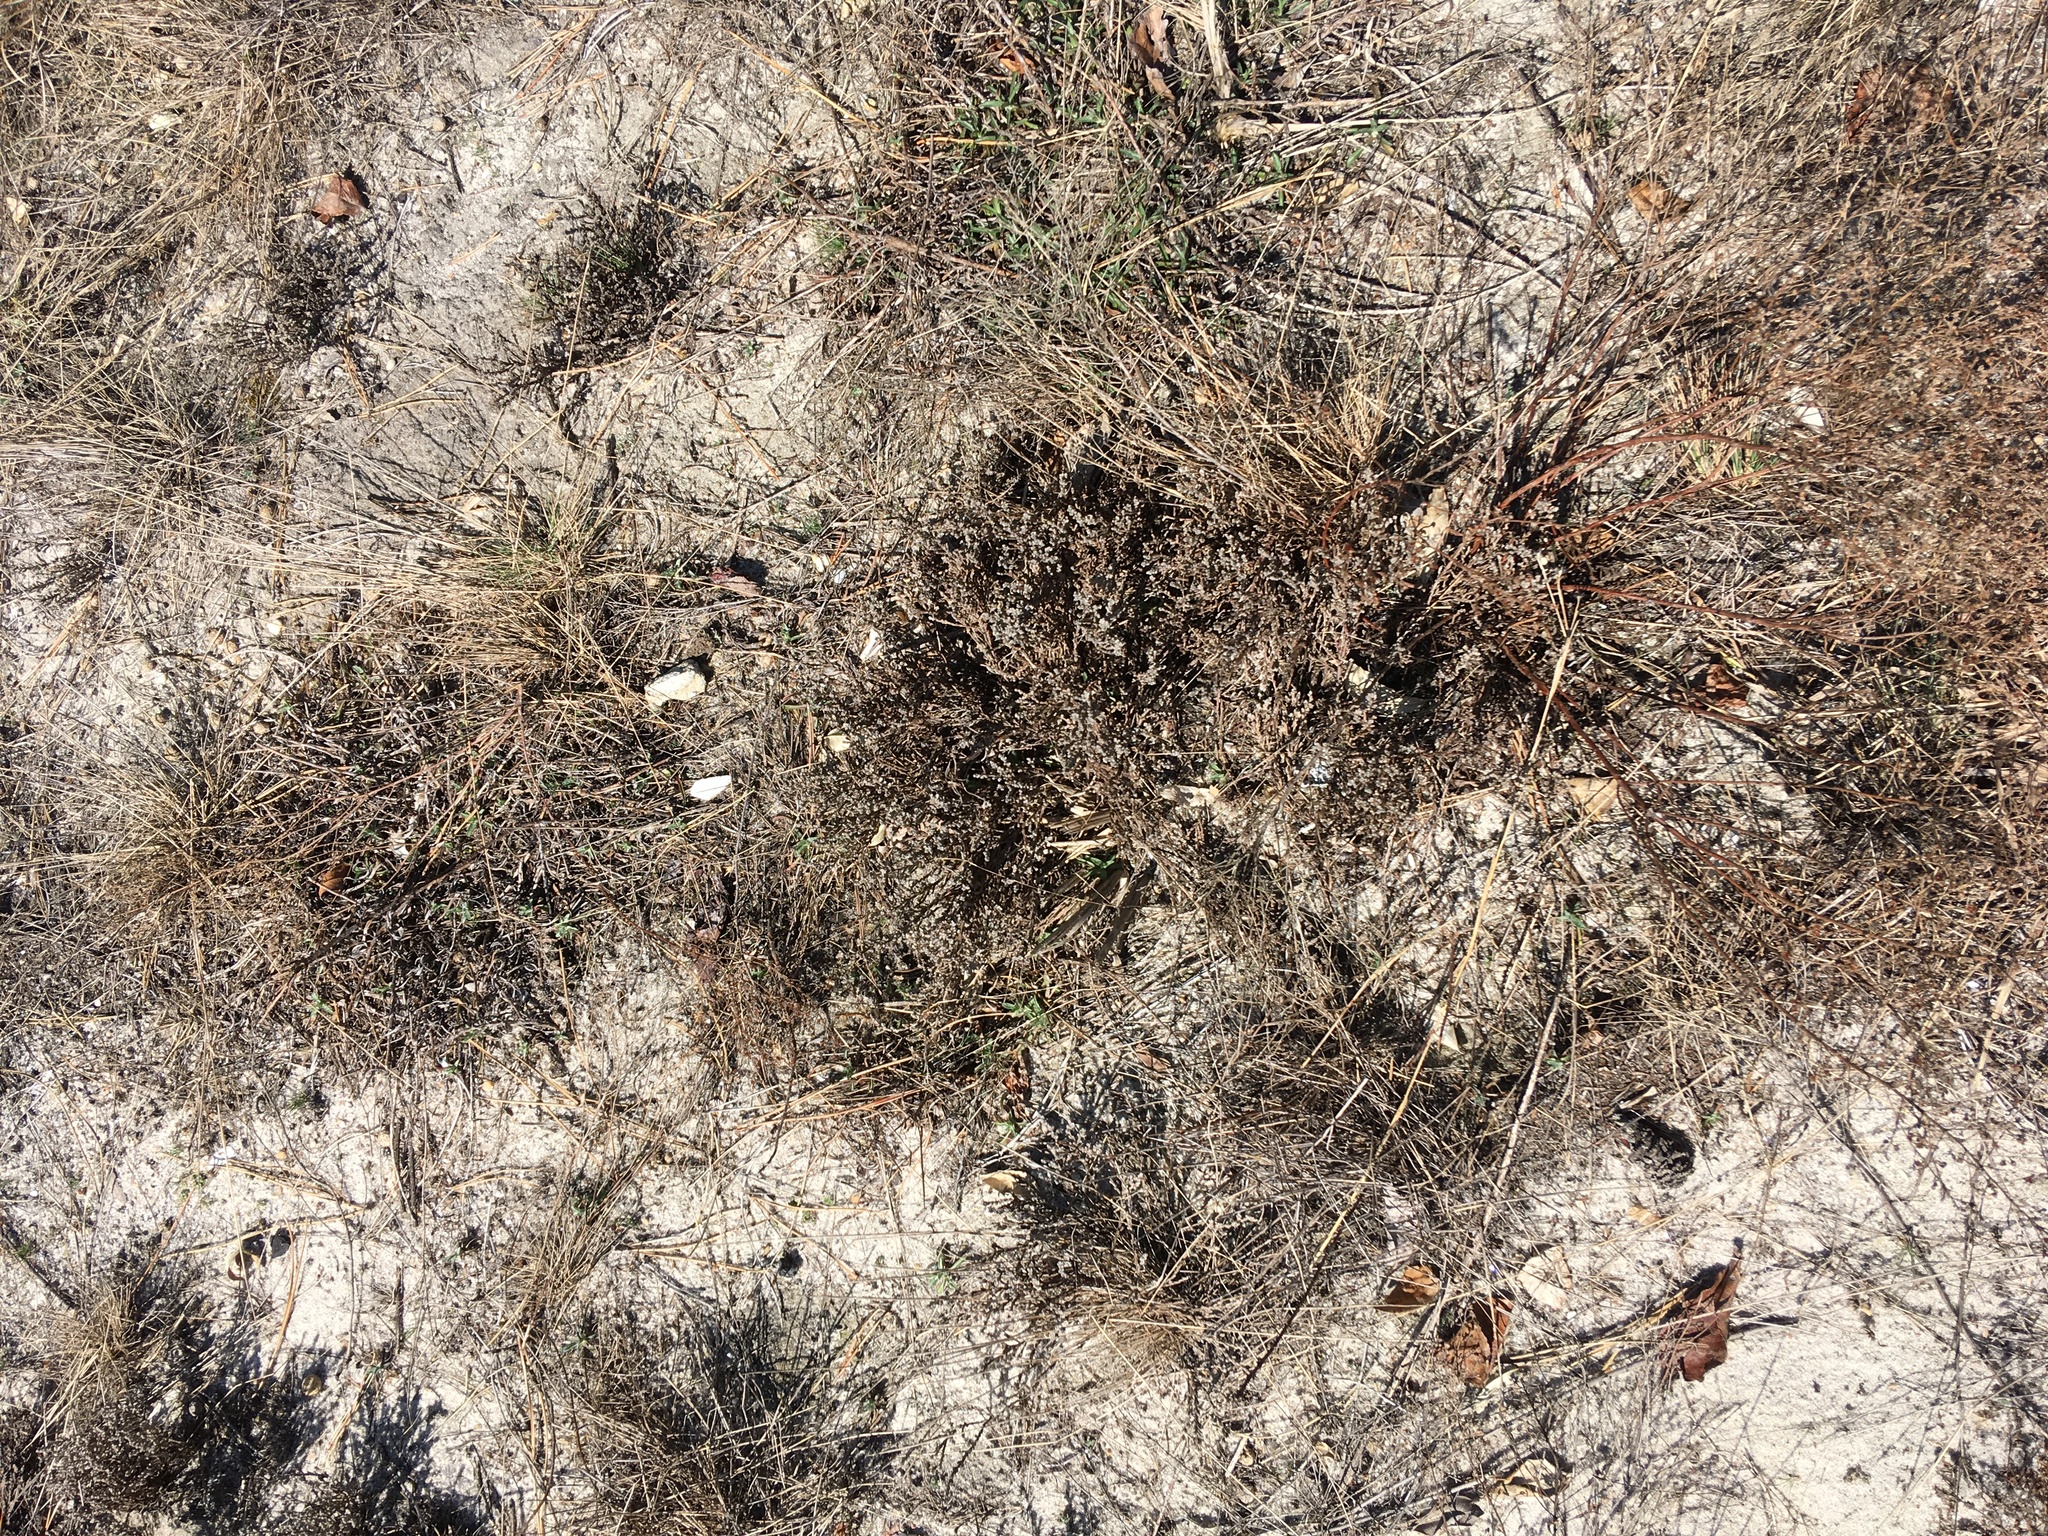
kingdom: Plantae
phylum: Tracheophyta
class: Magnoliopsida
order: Malvales
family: Cistaceae
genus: Hudsonia
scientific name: Hudsonia tomentosa
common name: Beach-heath
